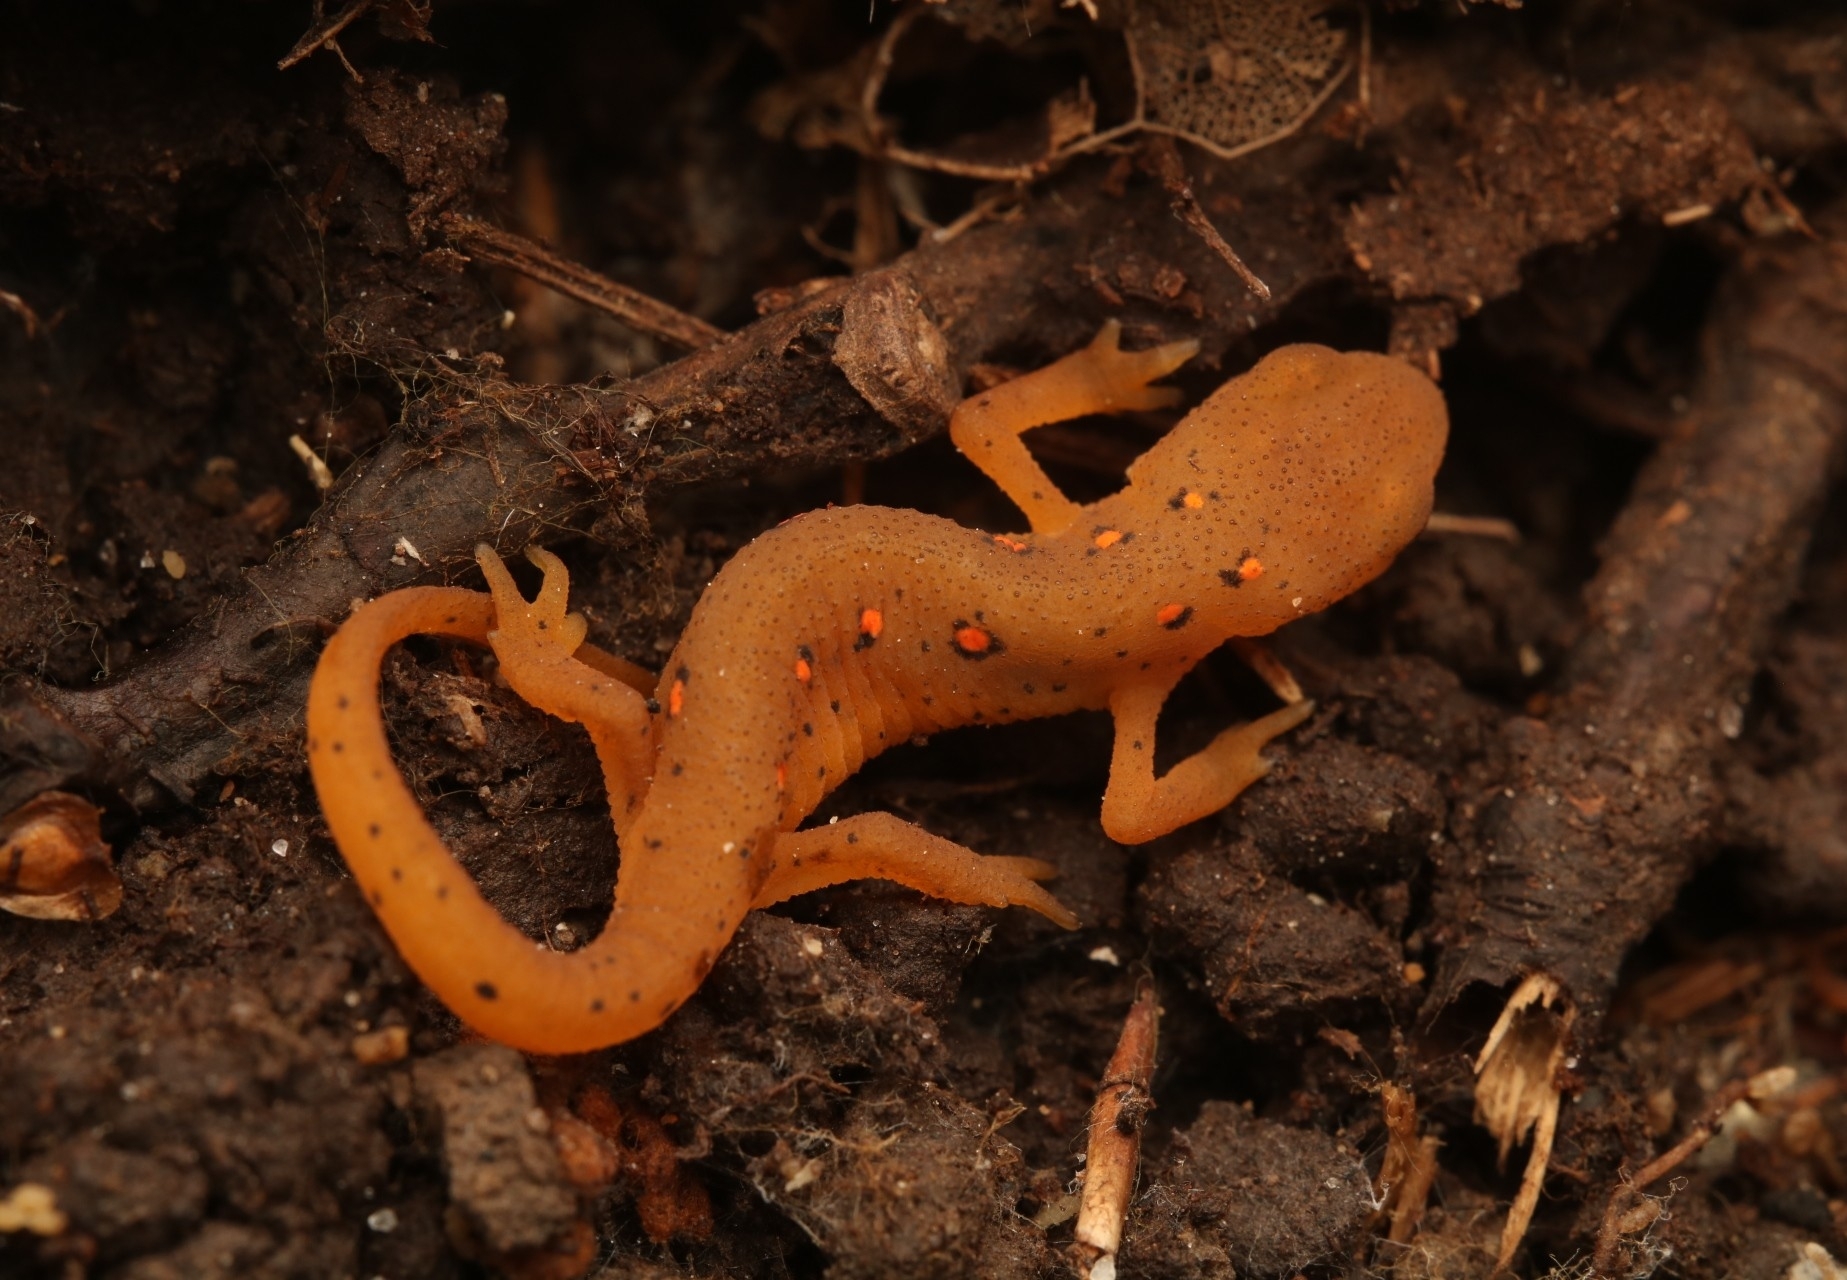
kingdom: Animalia
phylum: Chordata
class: Amphibia
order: Caudata
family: Salamandridae
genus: Notophthalmus
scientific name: Notophthalmus viridescens
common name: Eastern newt
